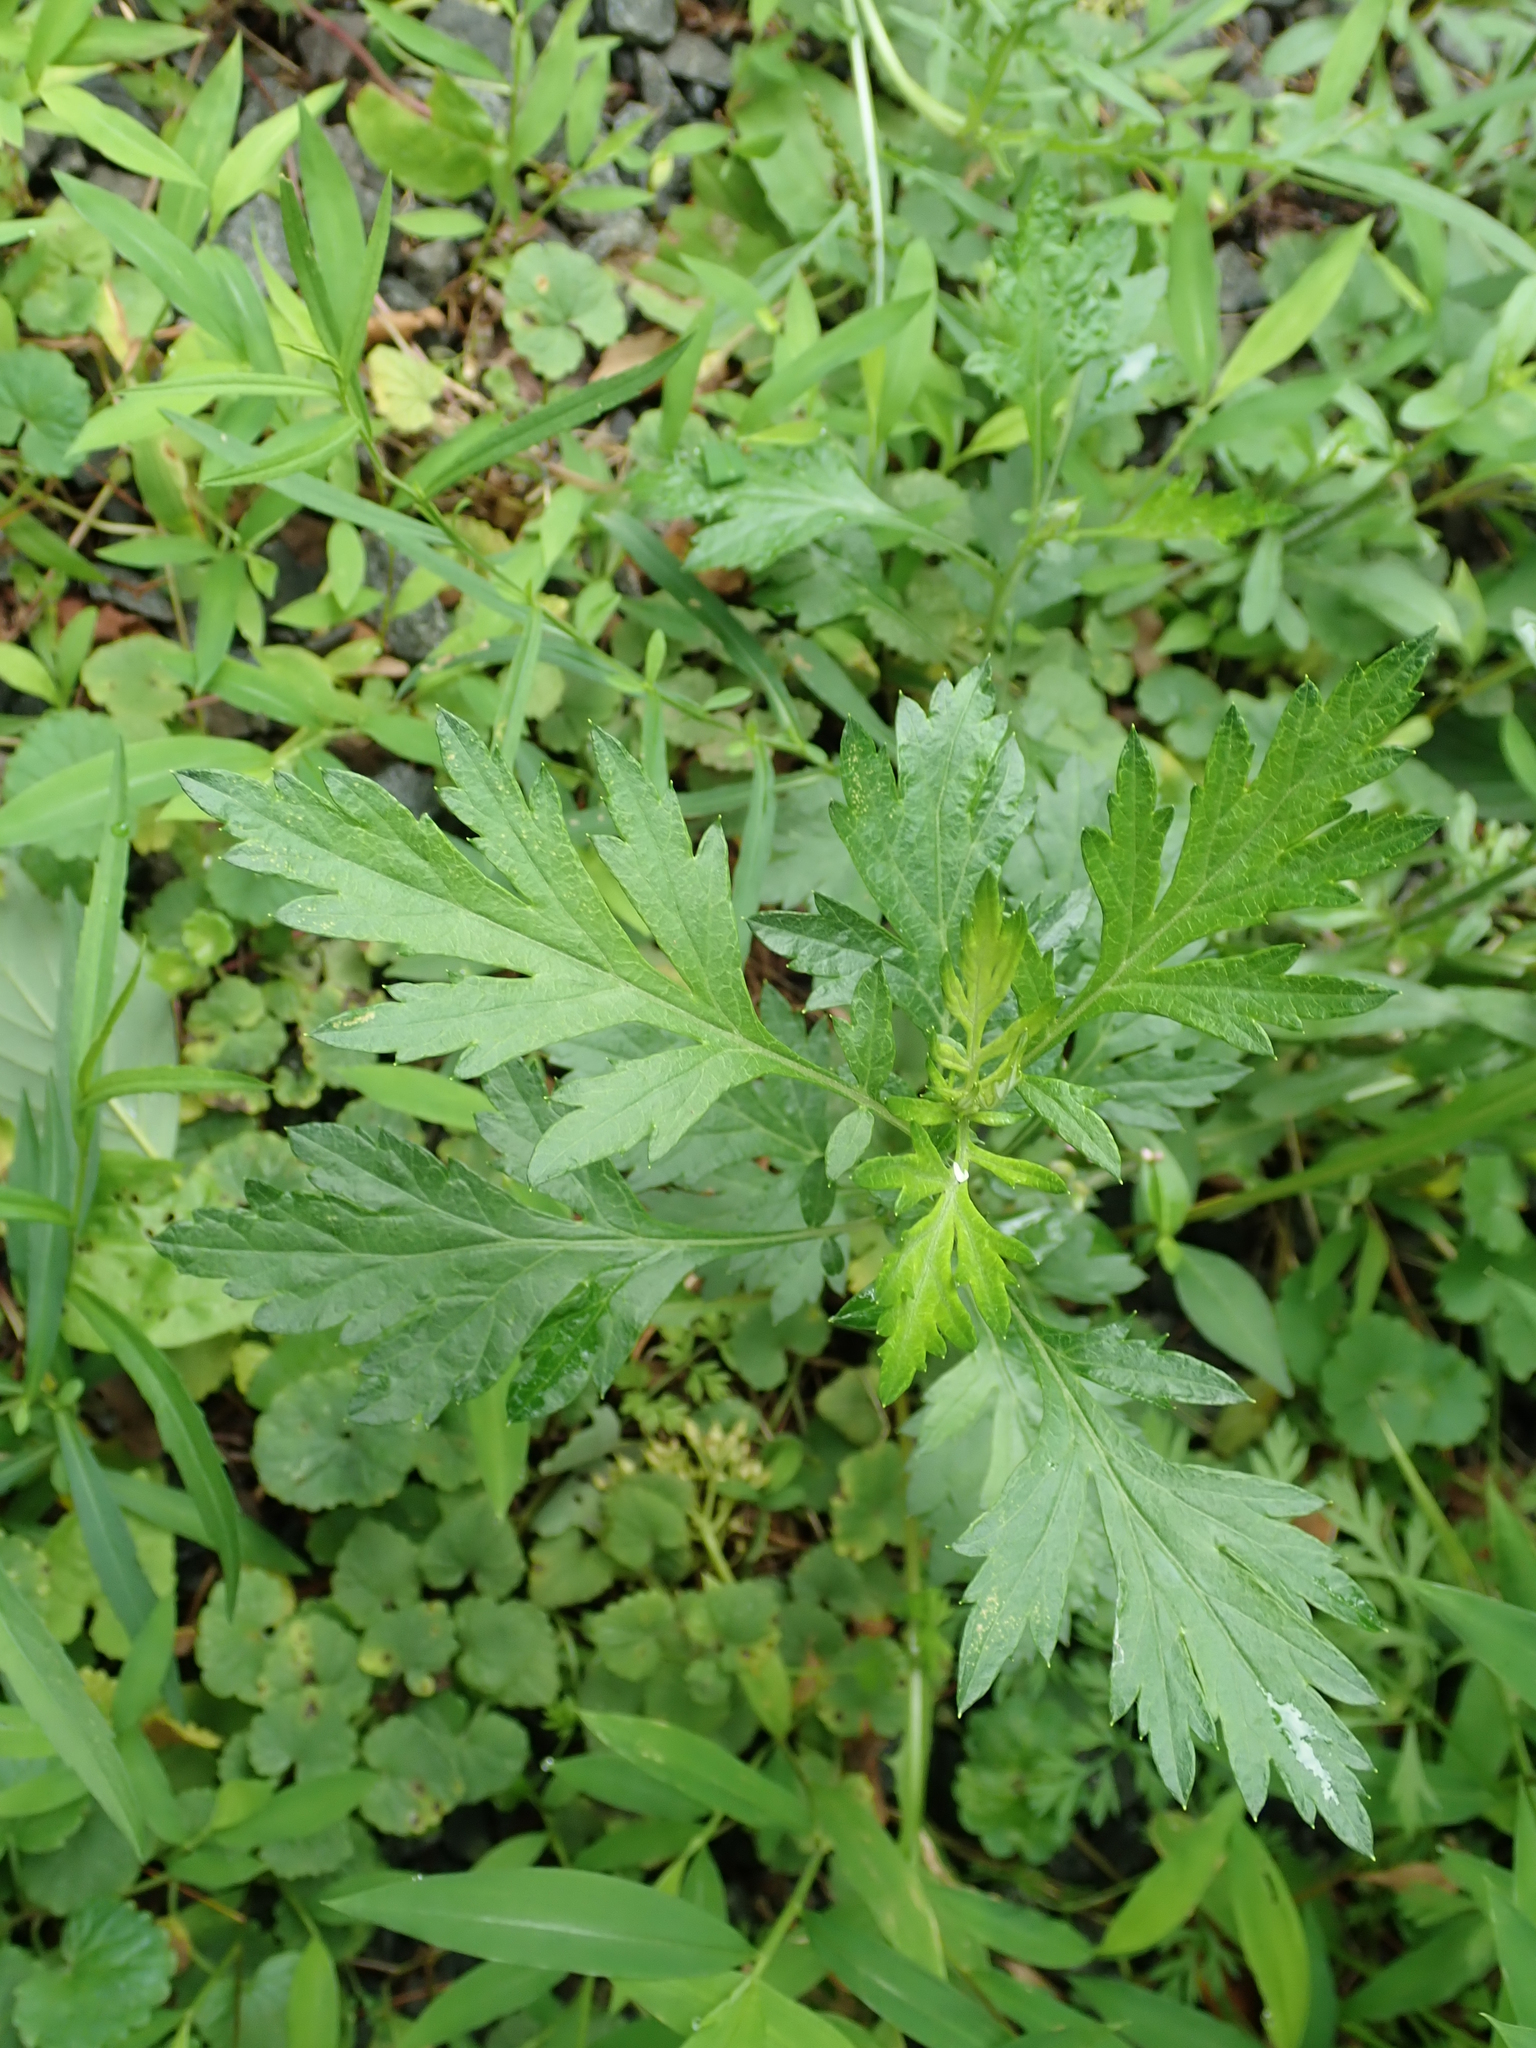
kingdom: Plantae
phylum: Tracheophyta
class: Magnoliopsida
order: Asterales
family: Asteraceae
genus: Artemisia
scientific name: Artemisia vulgaris
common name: Mugwort
